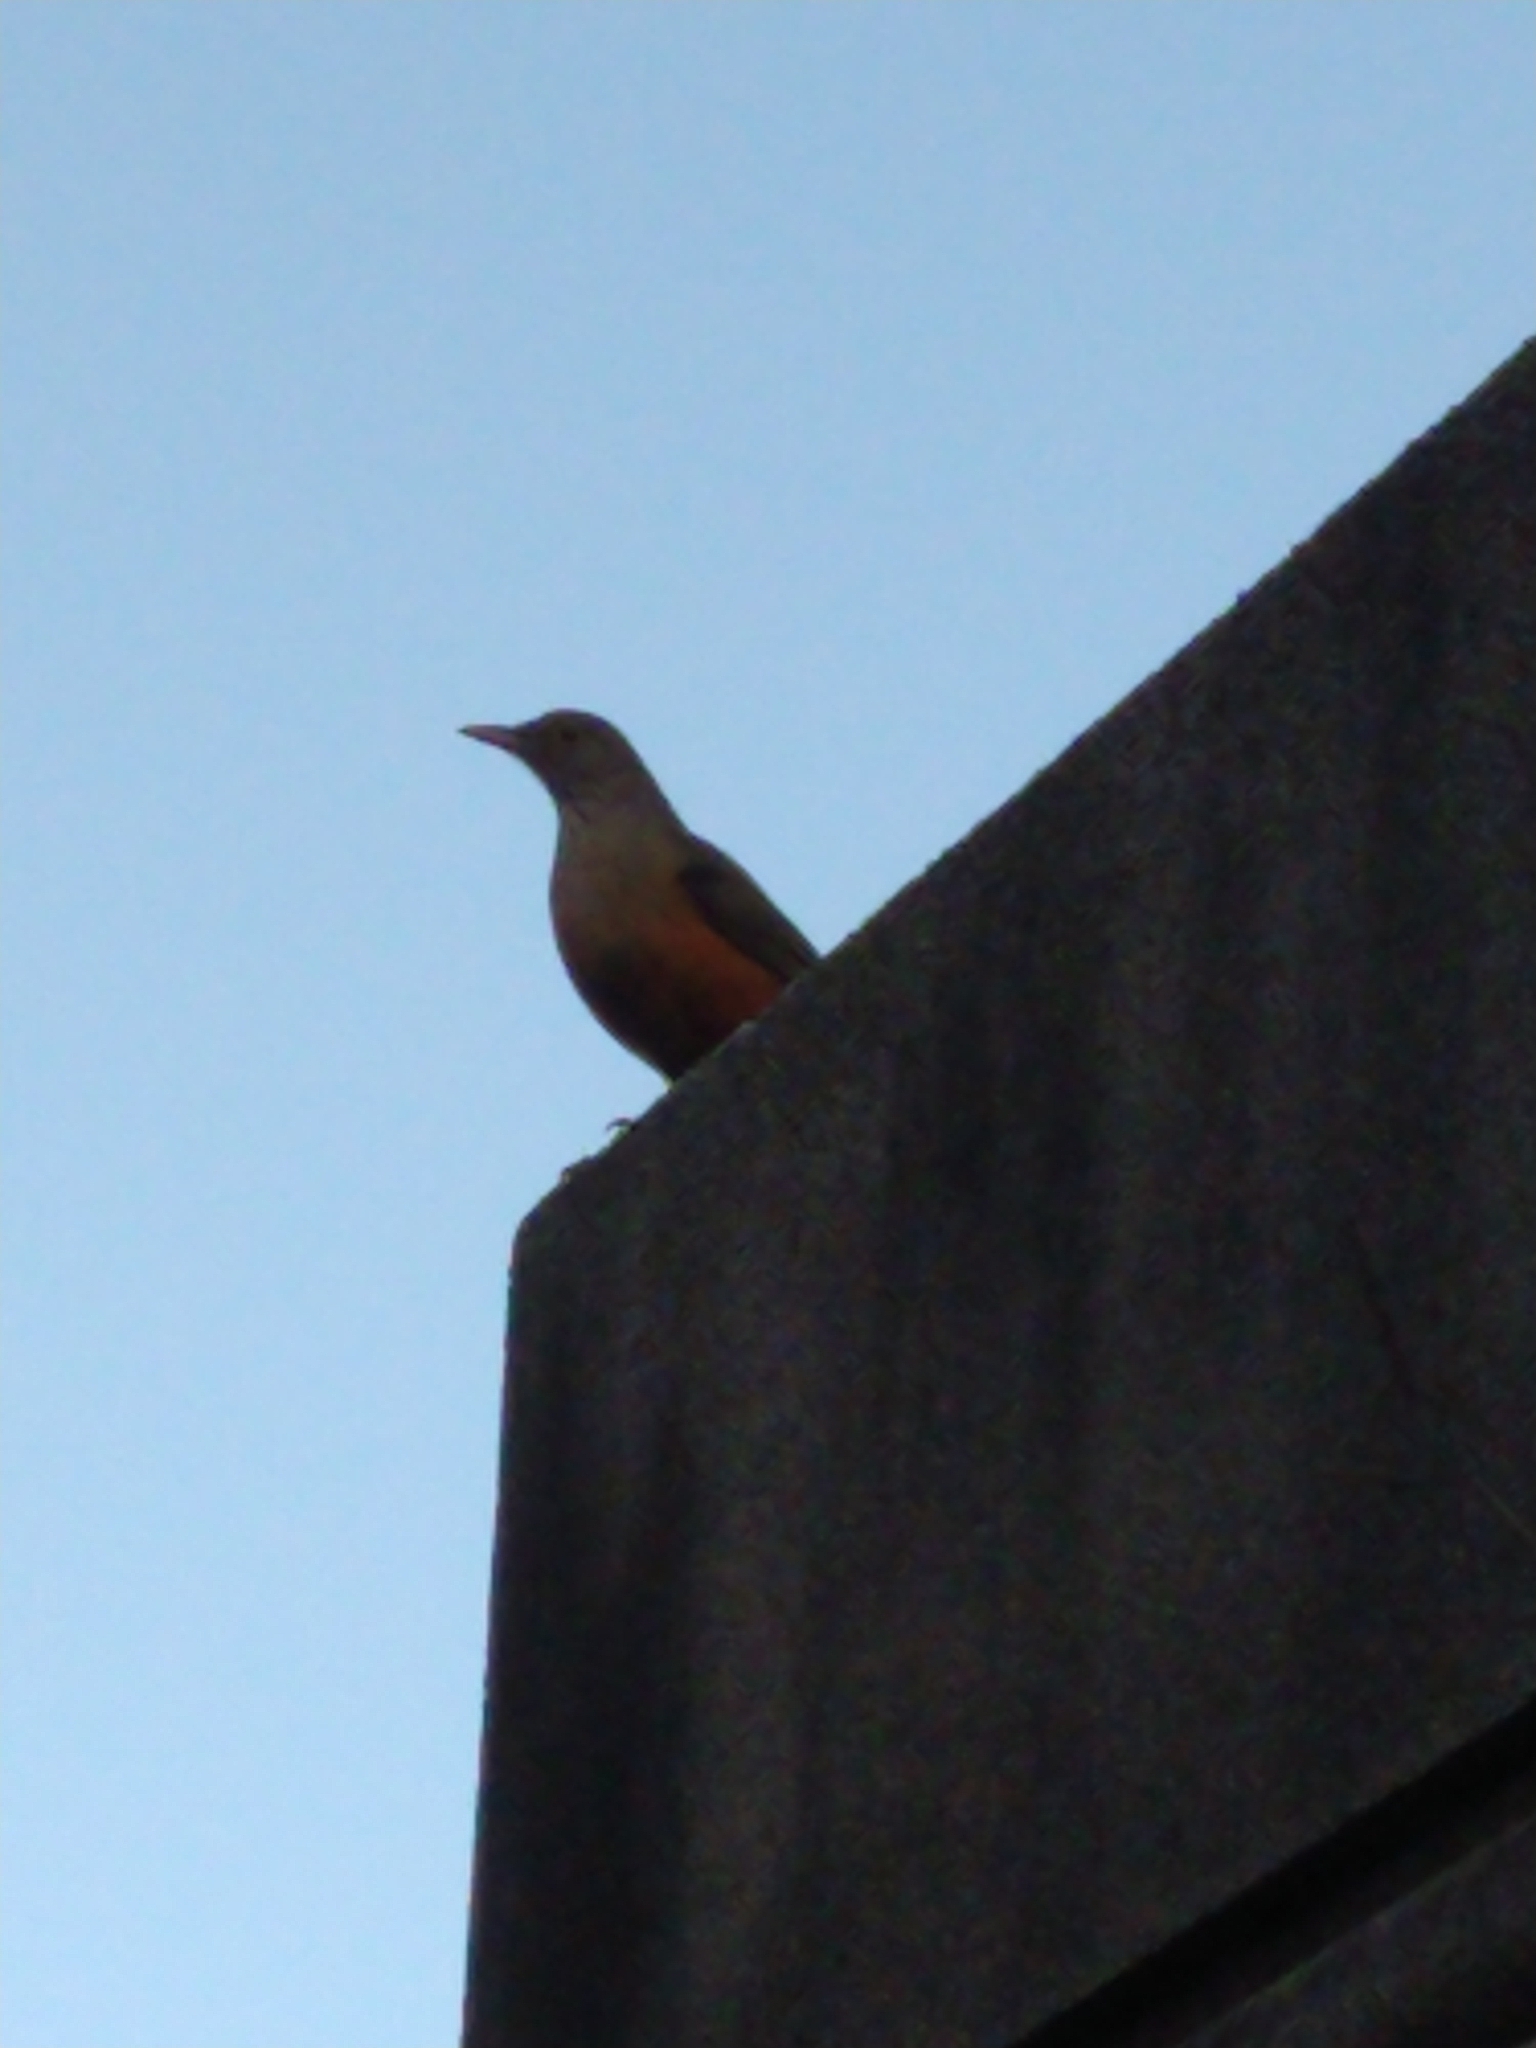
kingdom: Animalia
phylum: Chordata
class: Aves
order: Passeriformes
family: Turdidae
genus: Turdus
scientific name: Turdus rufiventris
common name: Rufous-bellied thrush
